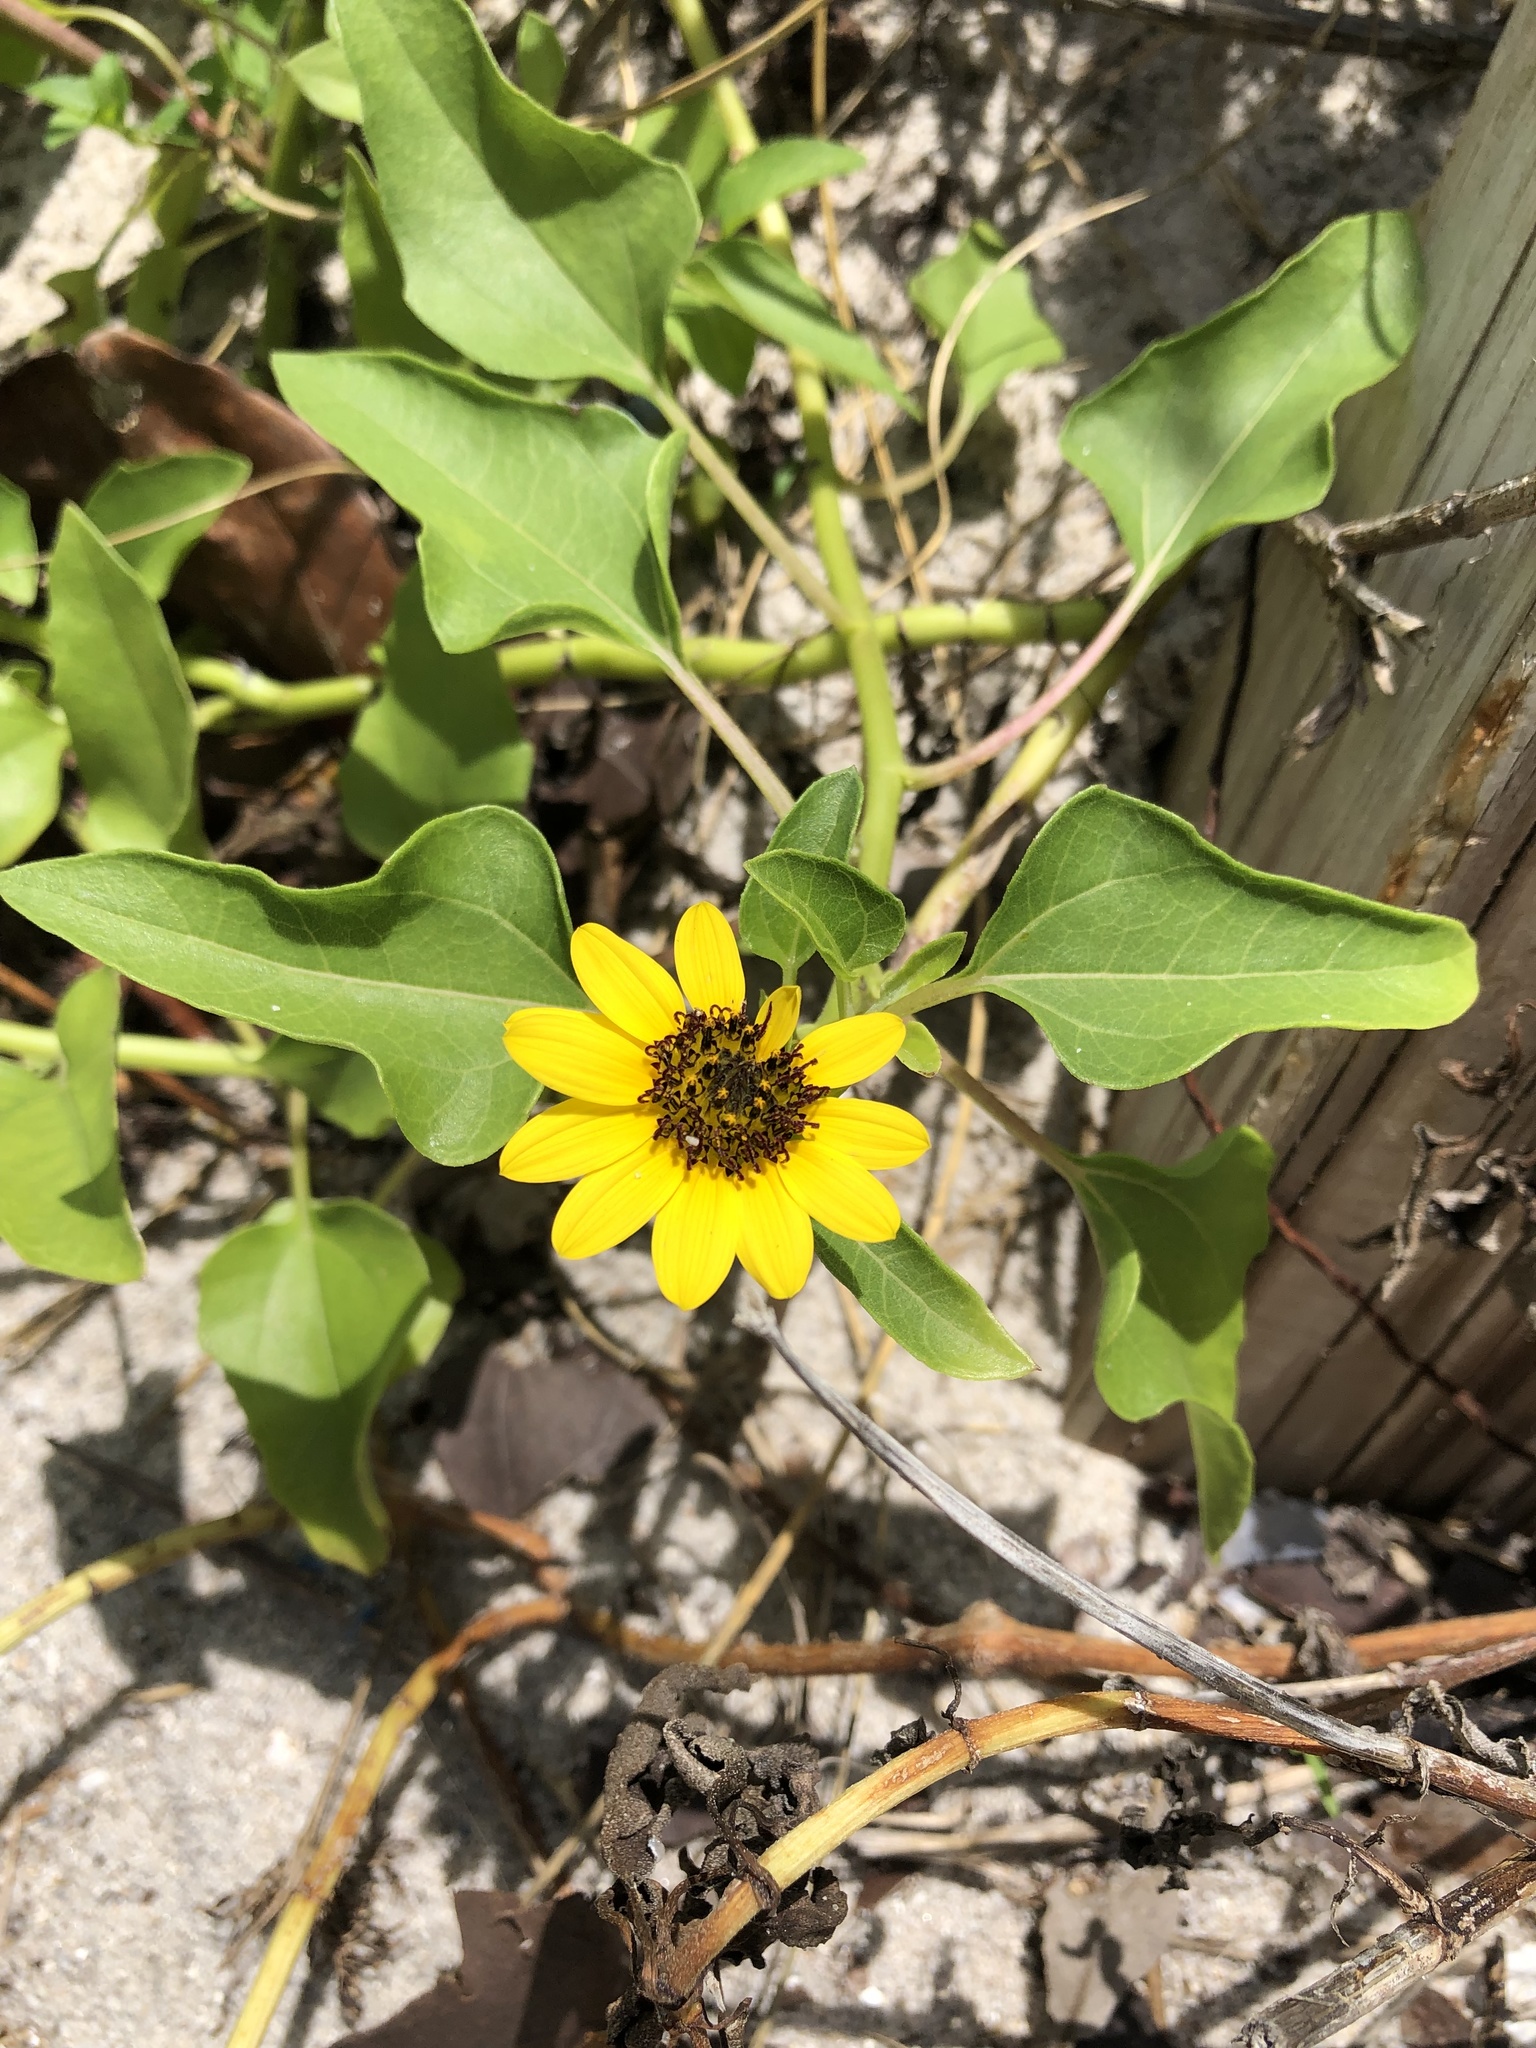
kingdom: Plantae
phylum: Tracheophyta
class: Magnoliopsida
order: Asterales
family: Asteraceae
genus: Helianthus
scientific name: Helianthus debilis
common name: Weak sunflower
